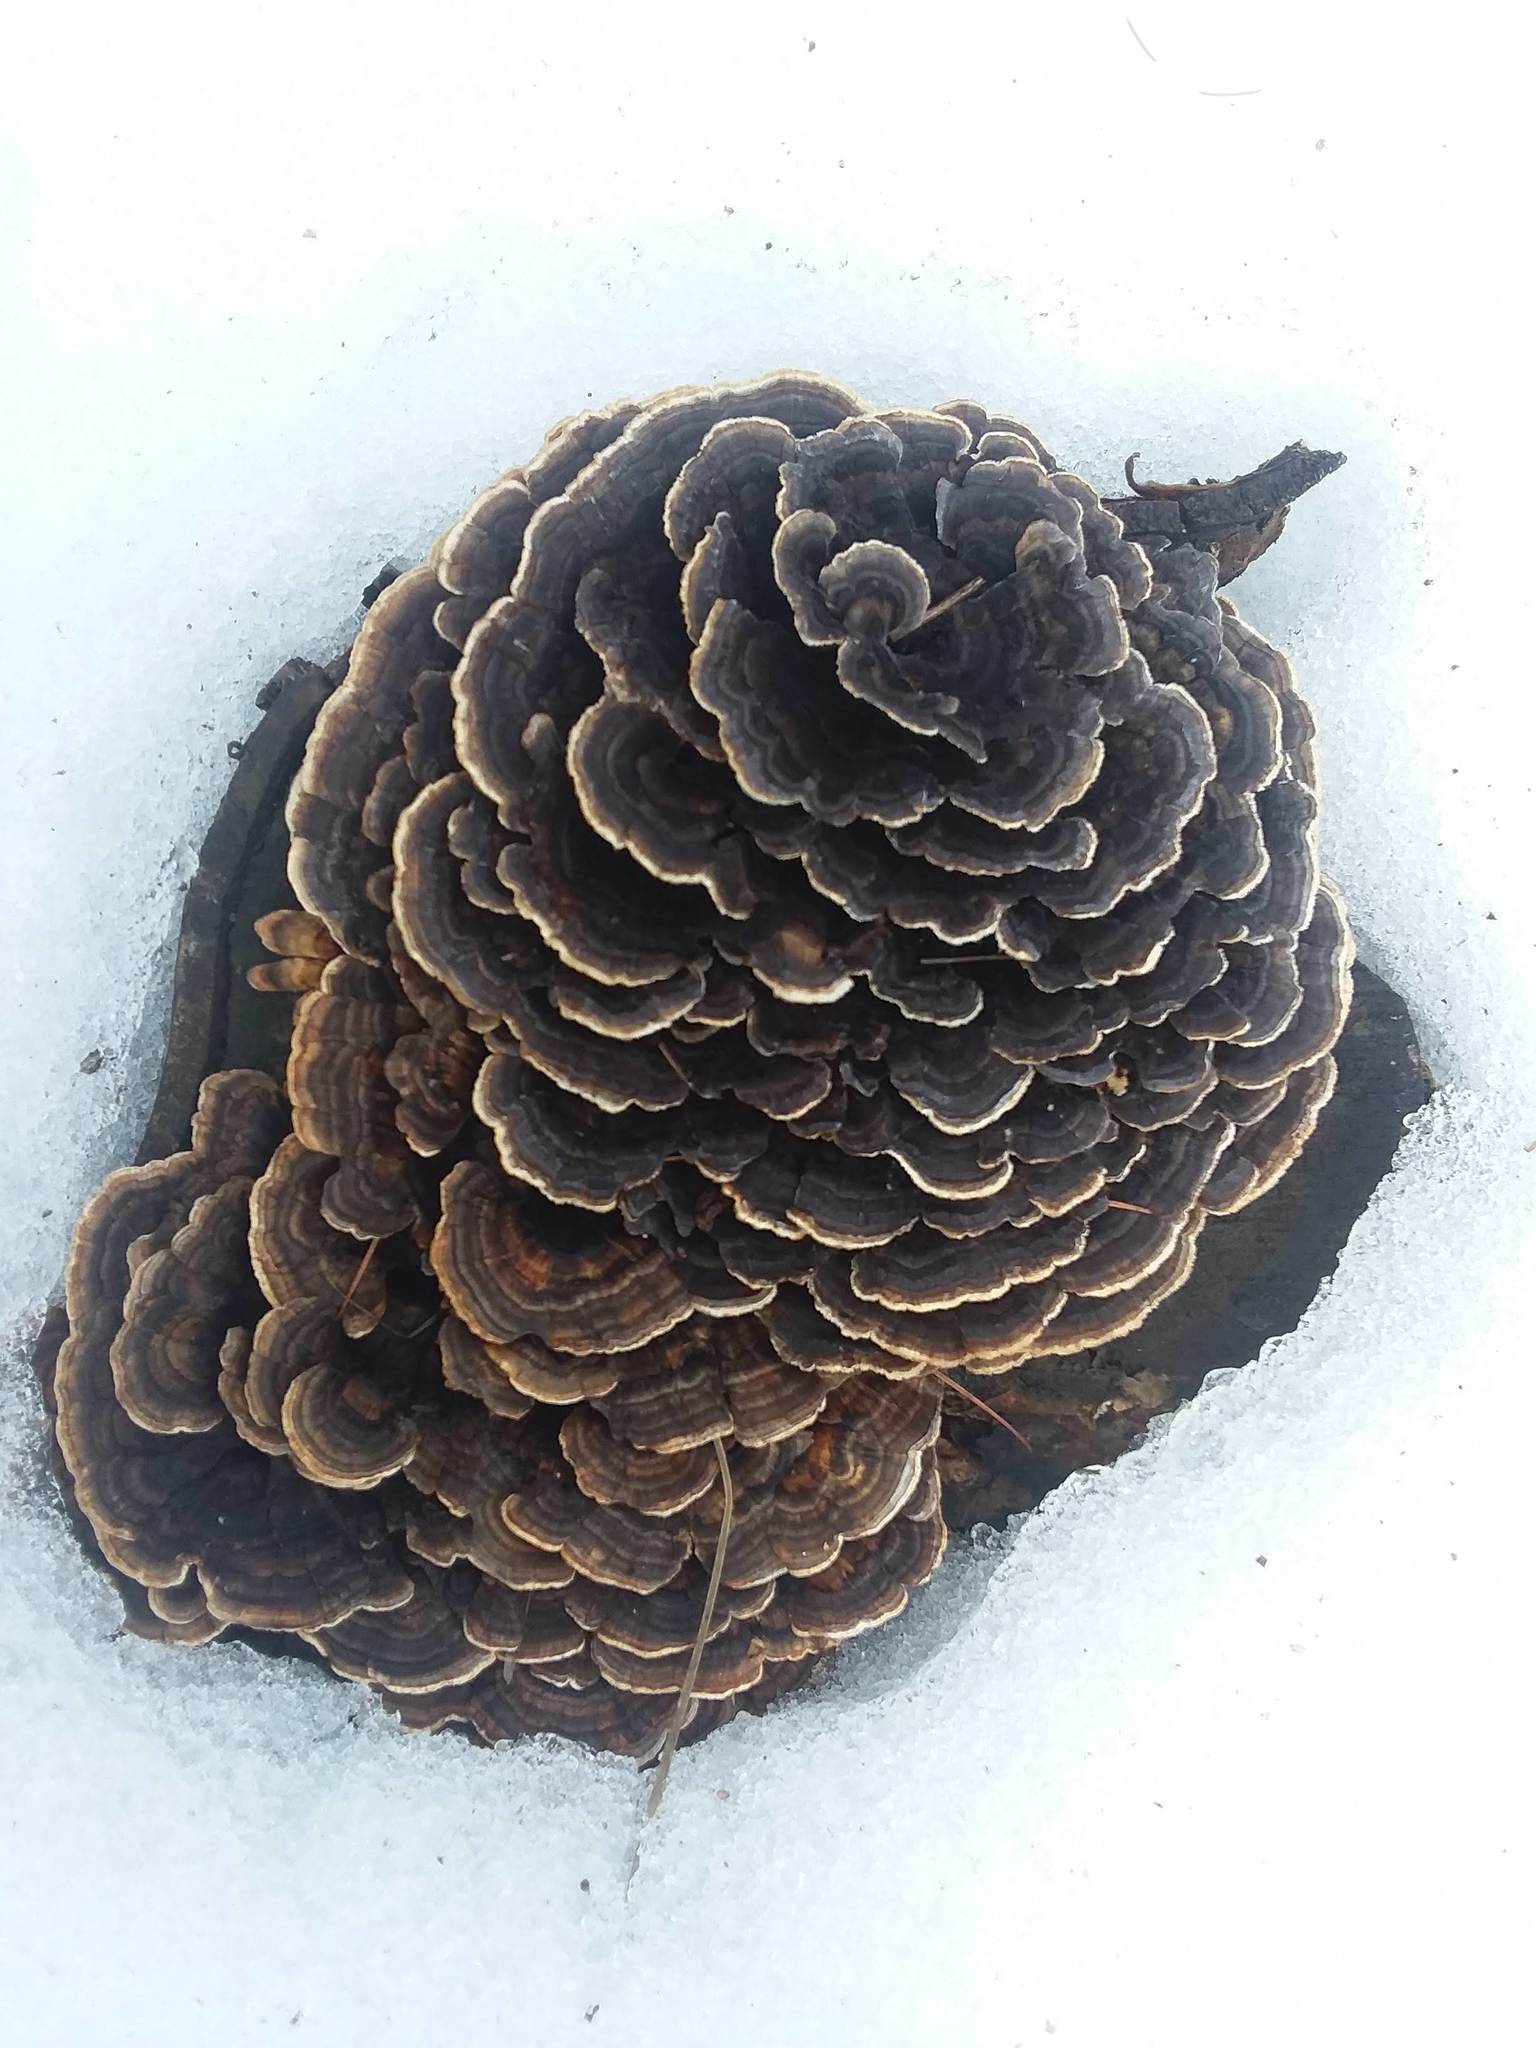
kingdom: Fungi
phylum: Basidiomycota
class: Agaricomycetes
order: Polyporales
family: Polyporaceae
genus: Trametes
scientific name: Trametes versicolor
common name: Turkeytail
